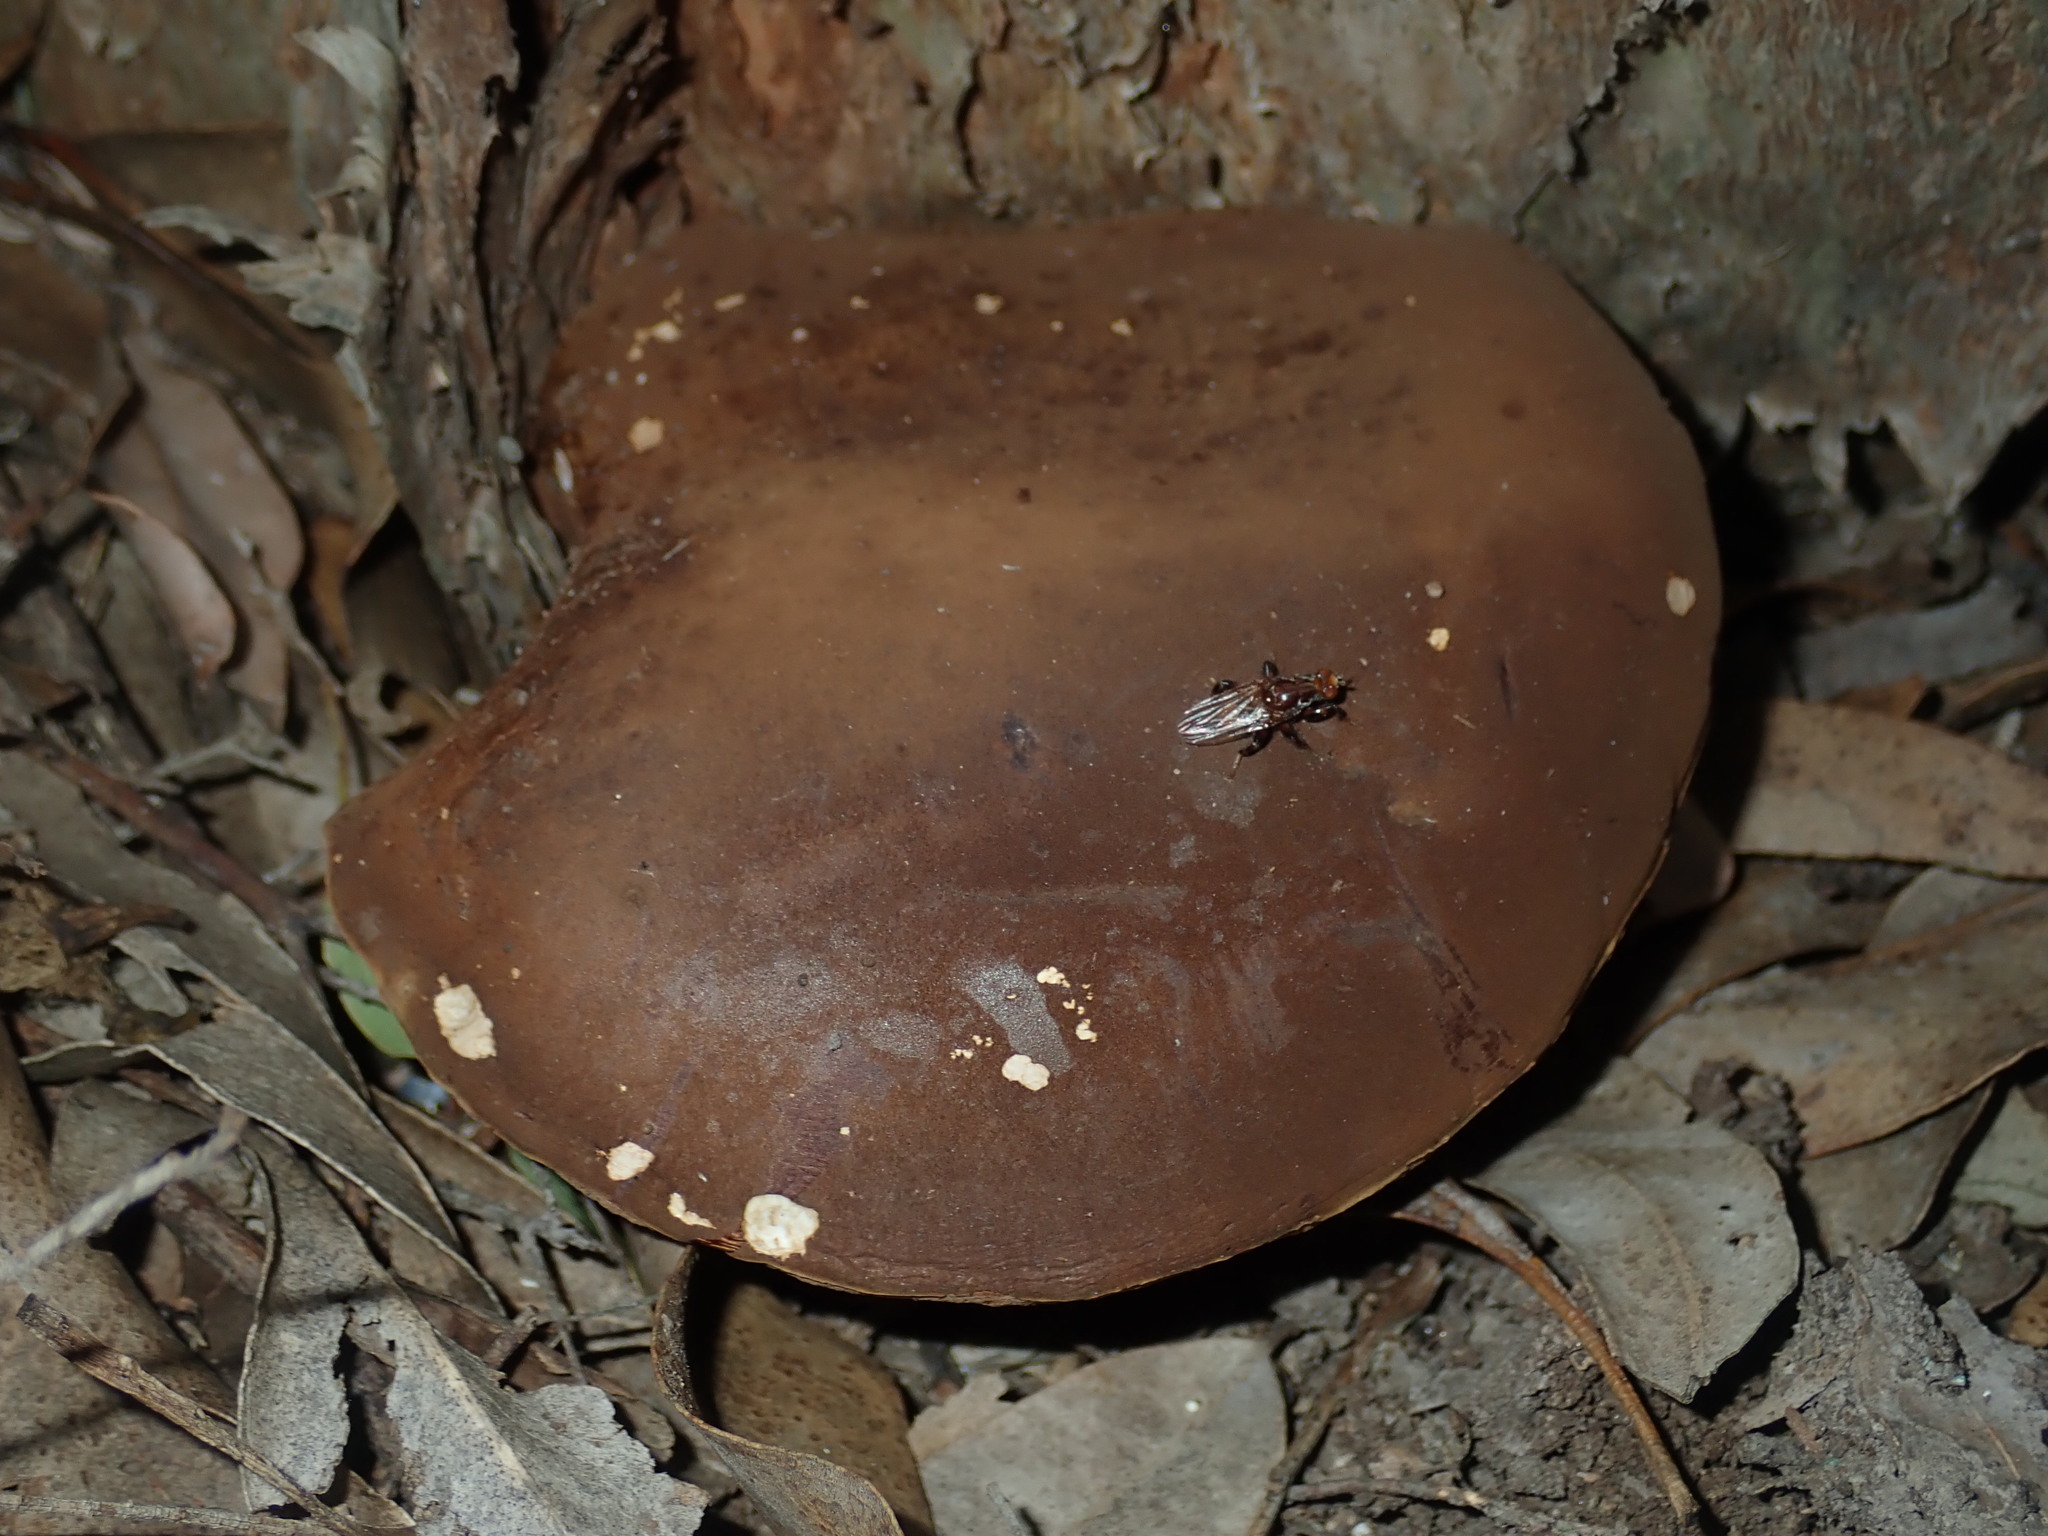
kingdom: Animalia
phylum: Arthropoda
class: Insecta
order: Diptera
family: Heleomyzidae
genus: Tapeigaster
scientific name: Tapeigaster brunneifrons
